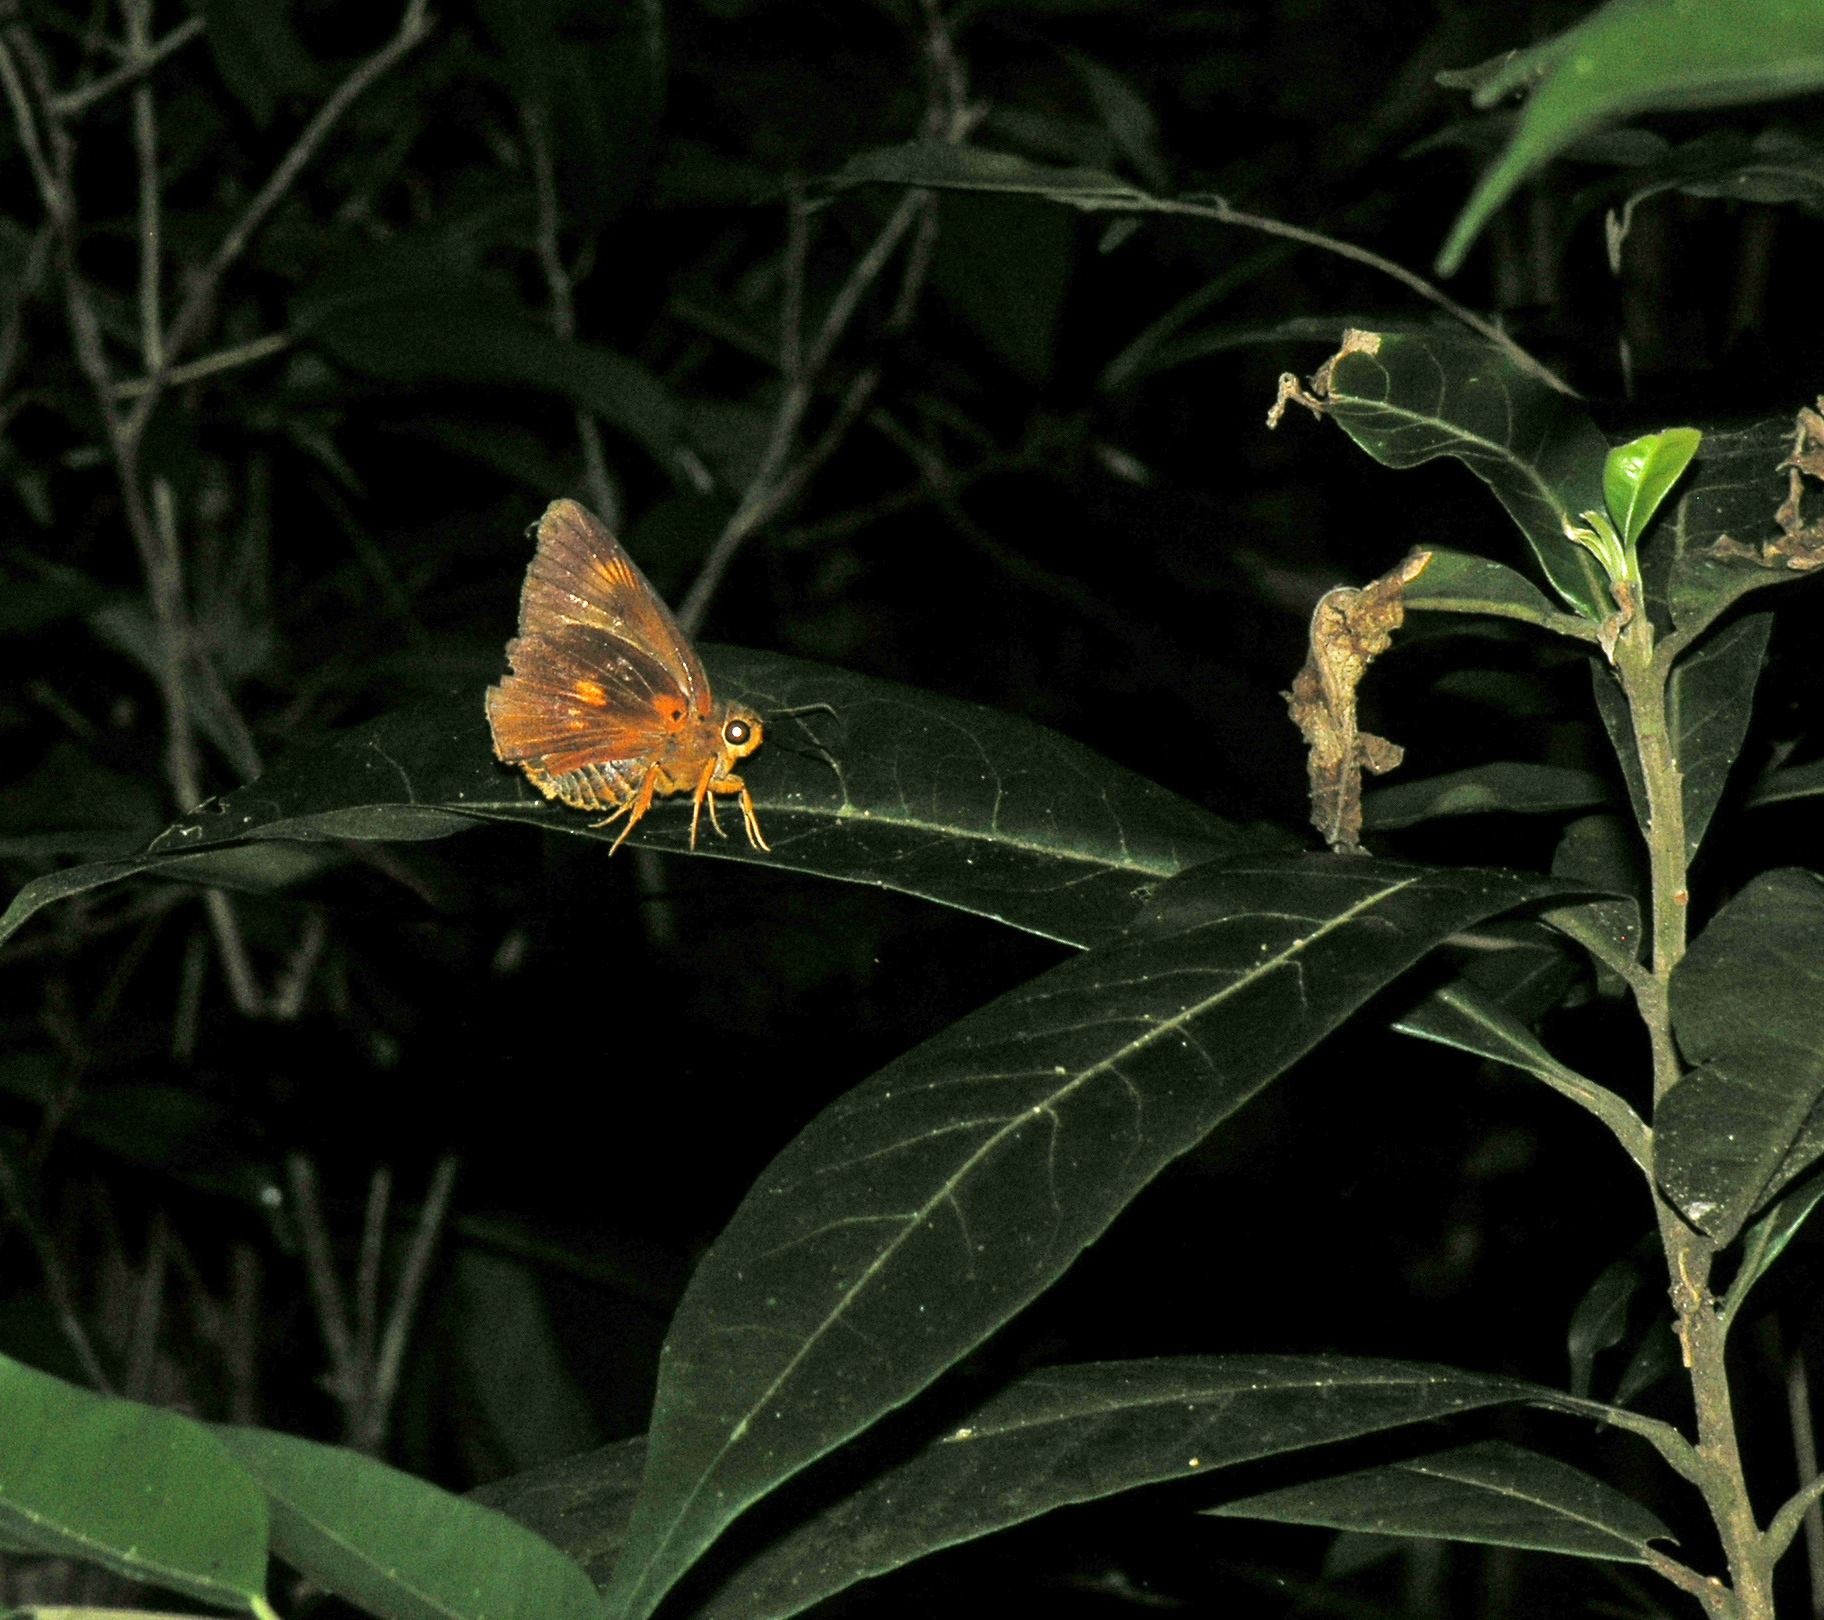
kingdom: Animalia
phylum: Arthropoda
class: Insecta
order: Lepidoptera
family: Hesperiidae
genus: Bibasis
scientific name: Bibasis etelka
